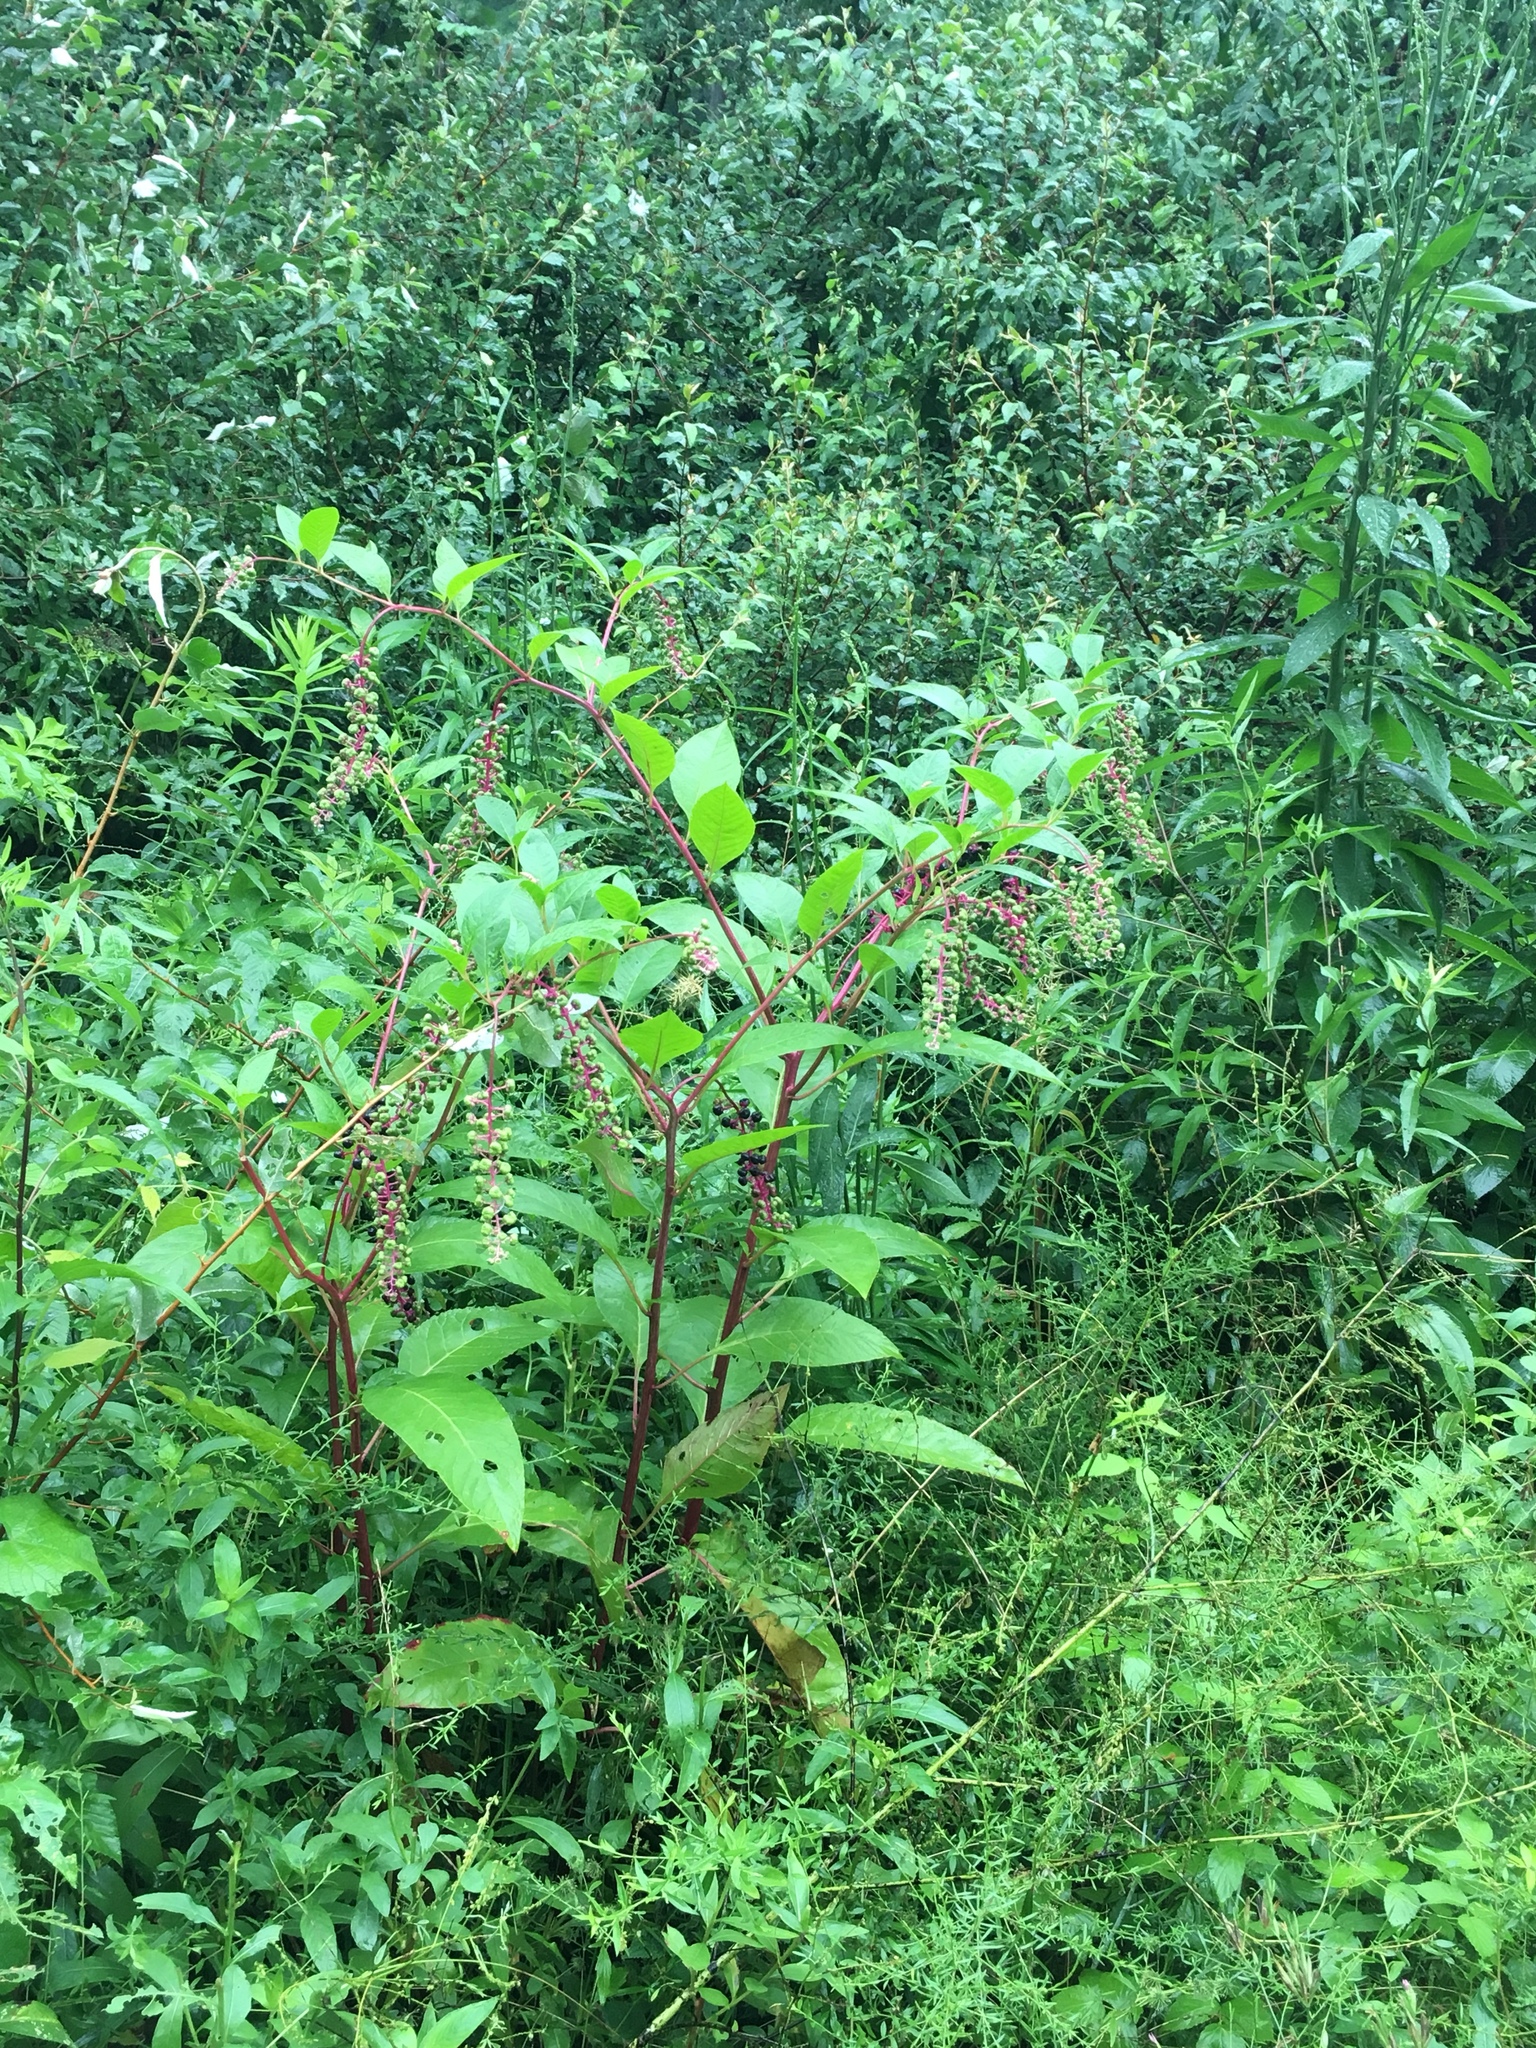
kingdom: Plantae
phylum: Tracheophyta
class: Magnoliopsida
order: Caryophyllales
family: Phytolaccaceae
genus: Phytolacca
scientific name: Phytolacca americana
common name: American pokeweed
